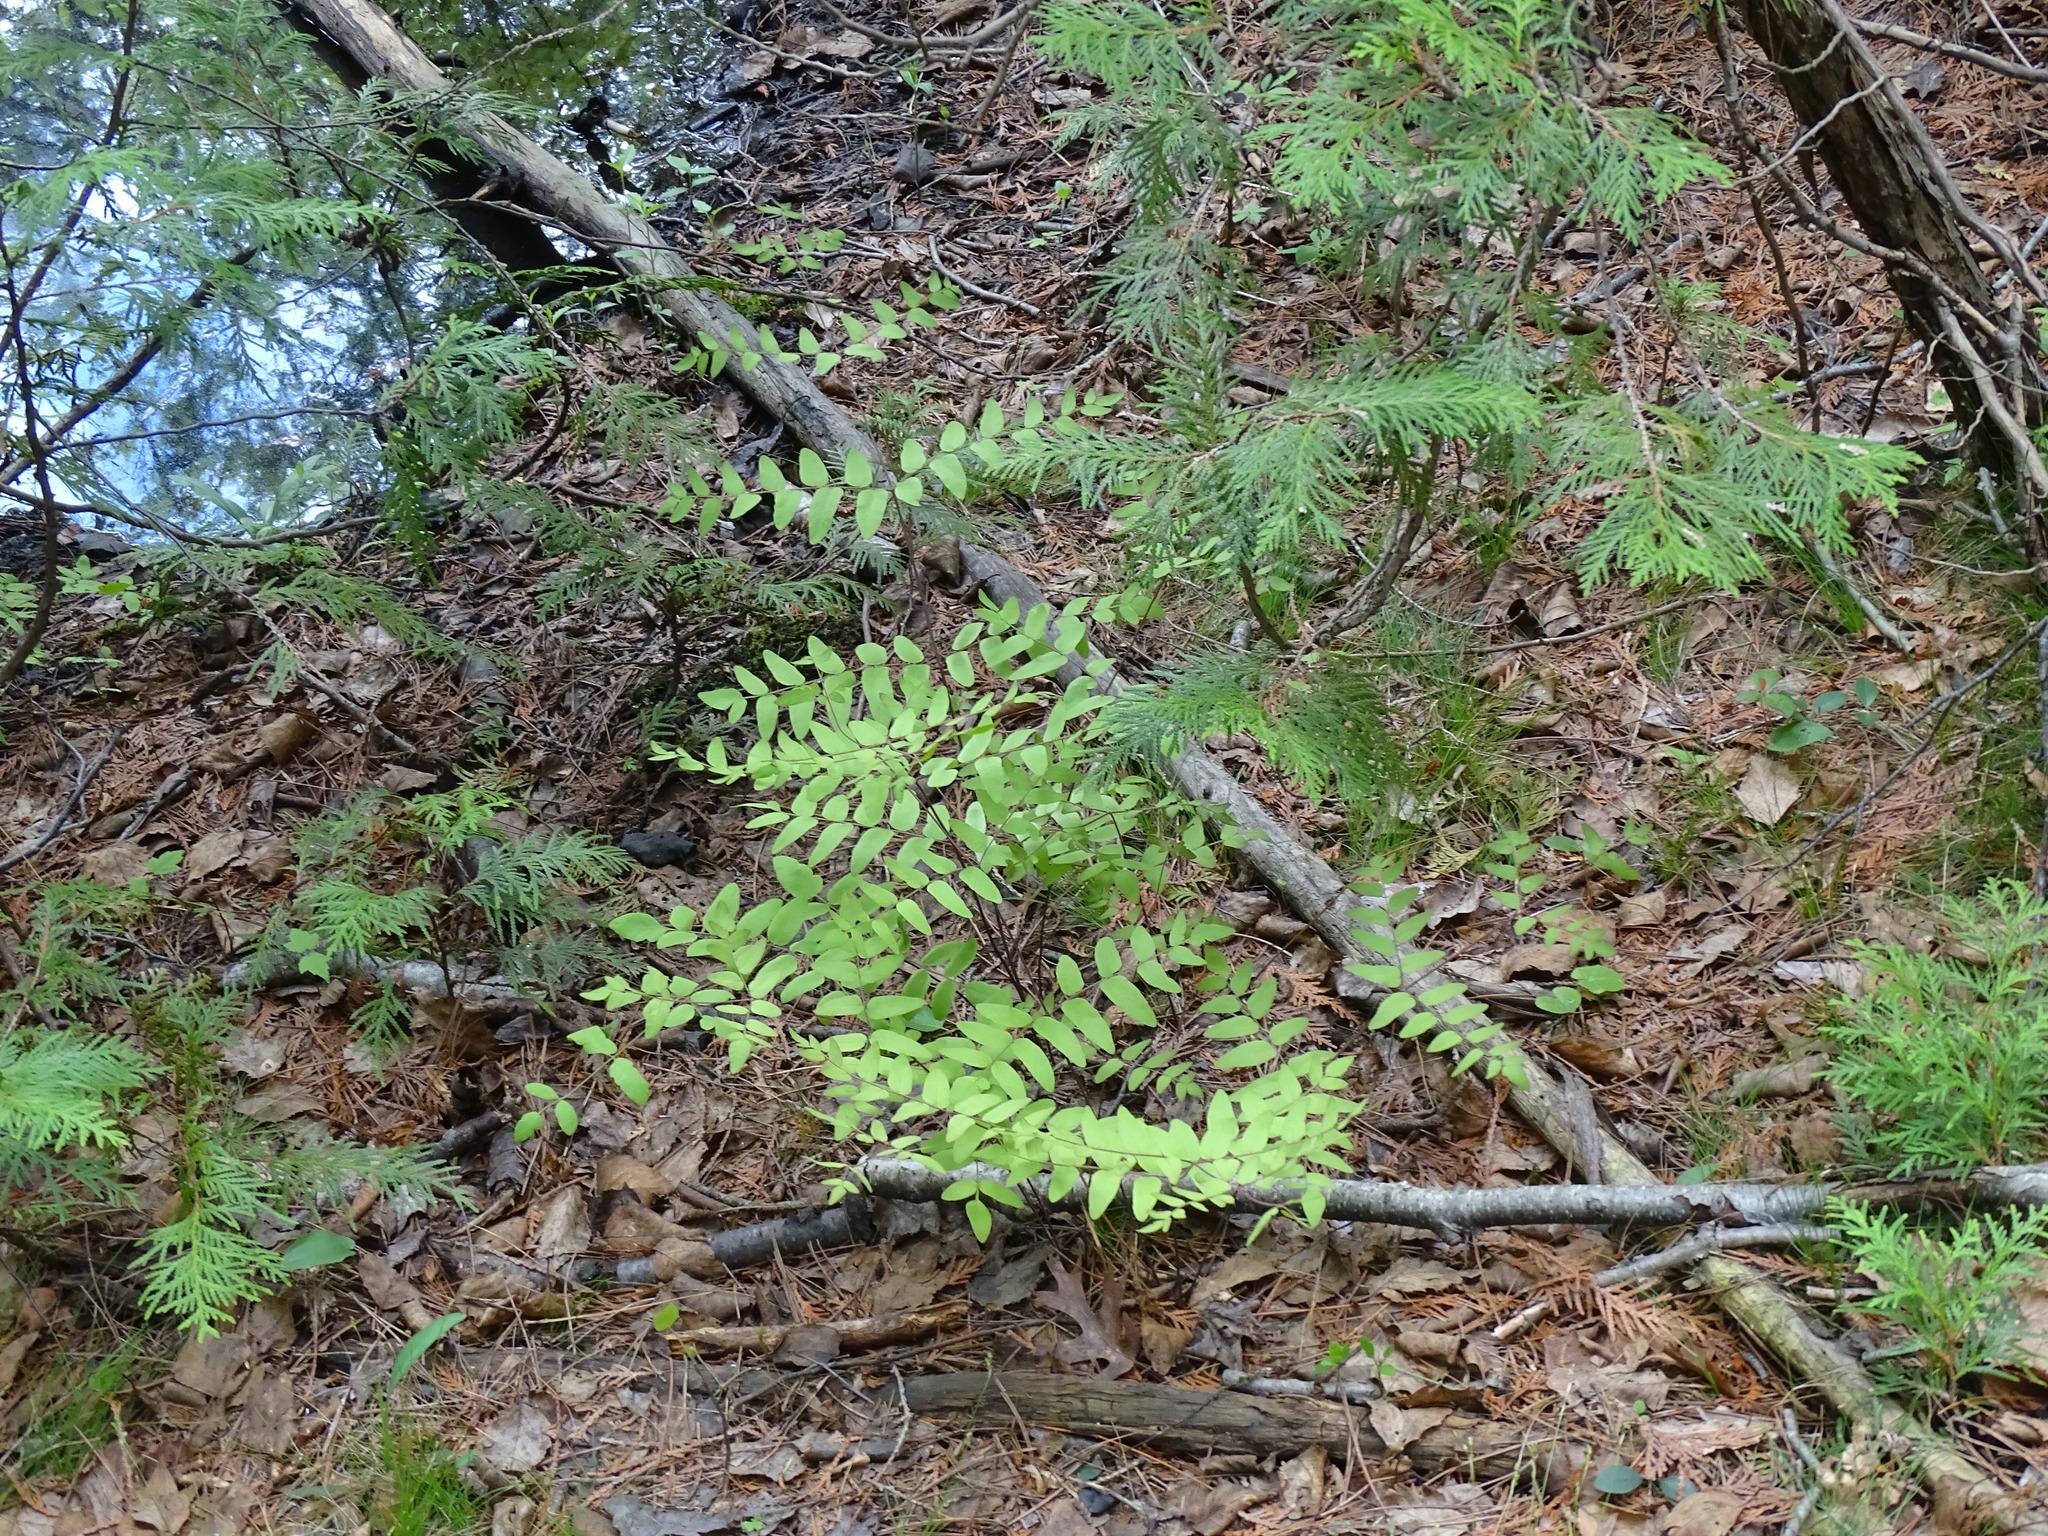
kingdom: Plantae
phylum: Tracheophyta
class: Polypodiopsida
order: Osmundales
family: Osmundaceae
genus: Osmunda
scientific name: Osmunda spectabilis
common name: American royal fern
